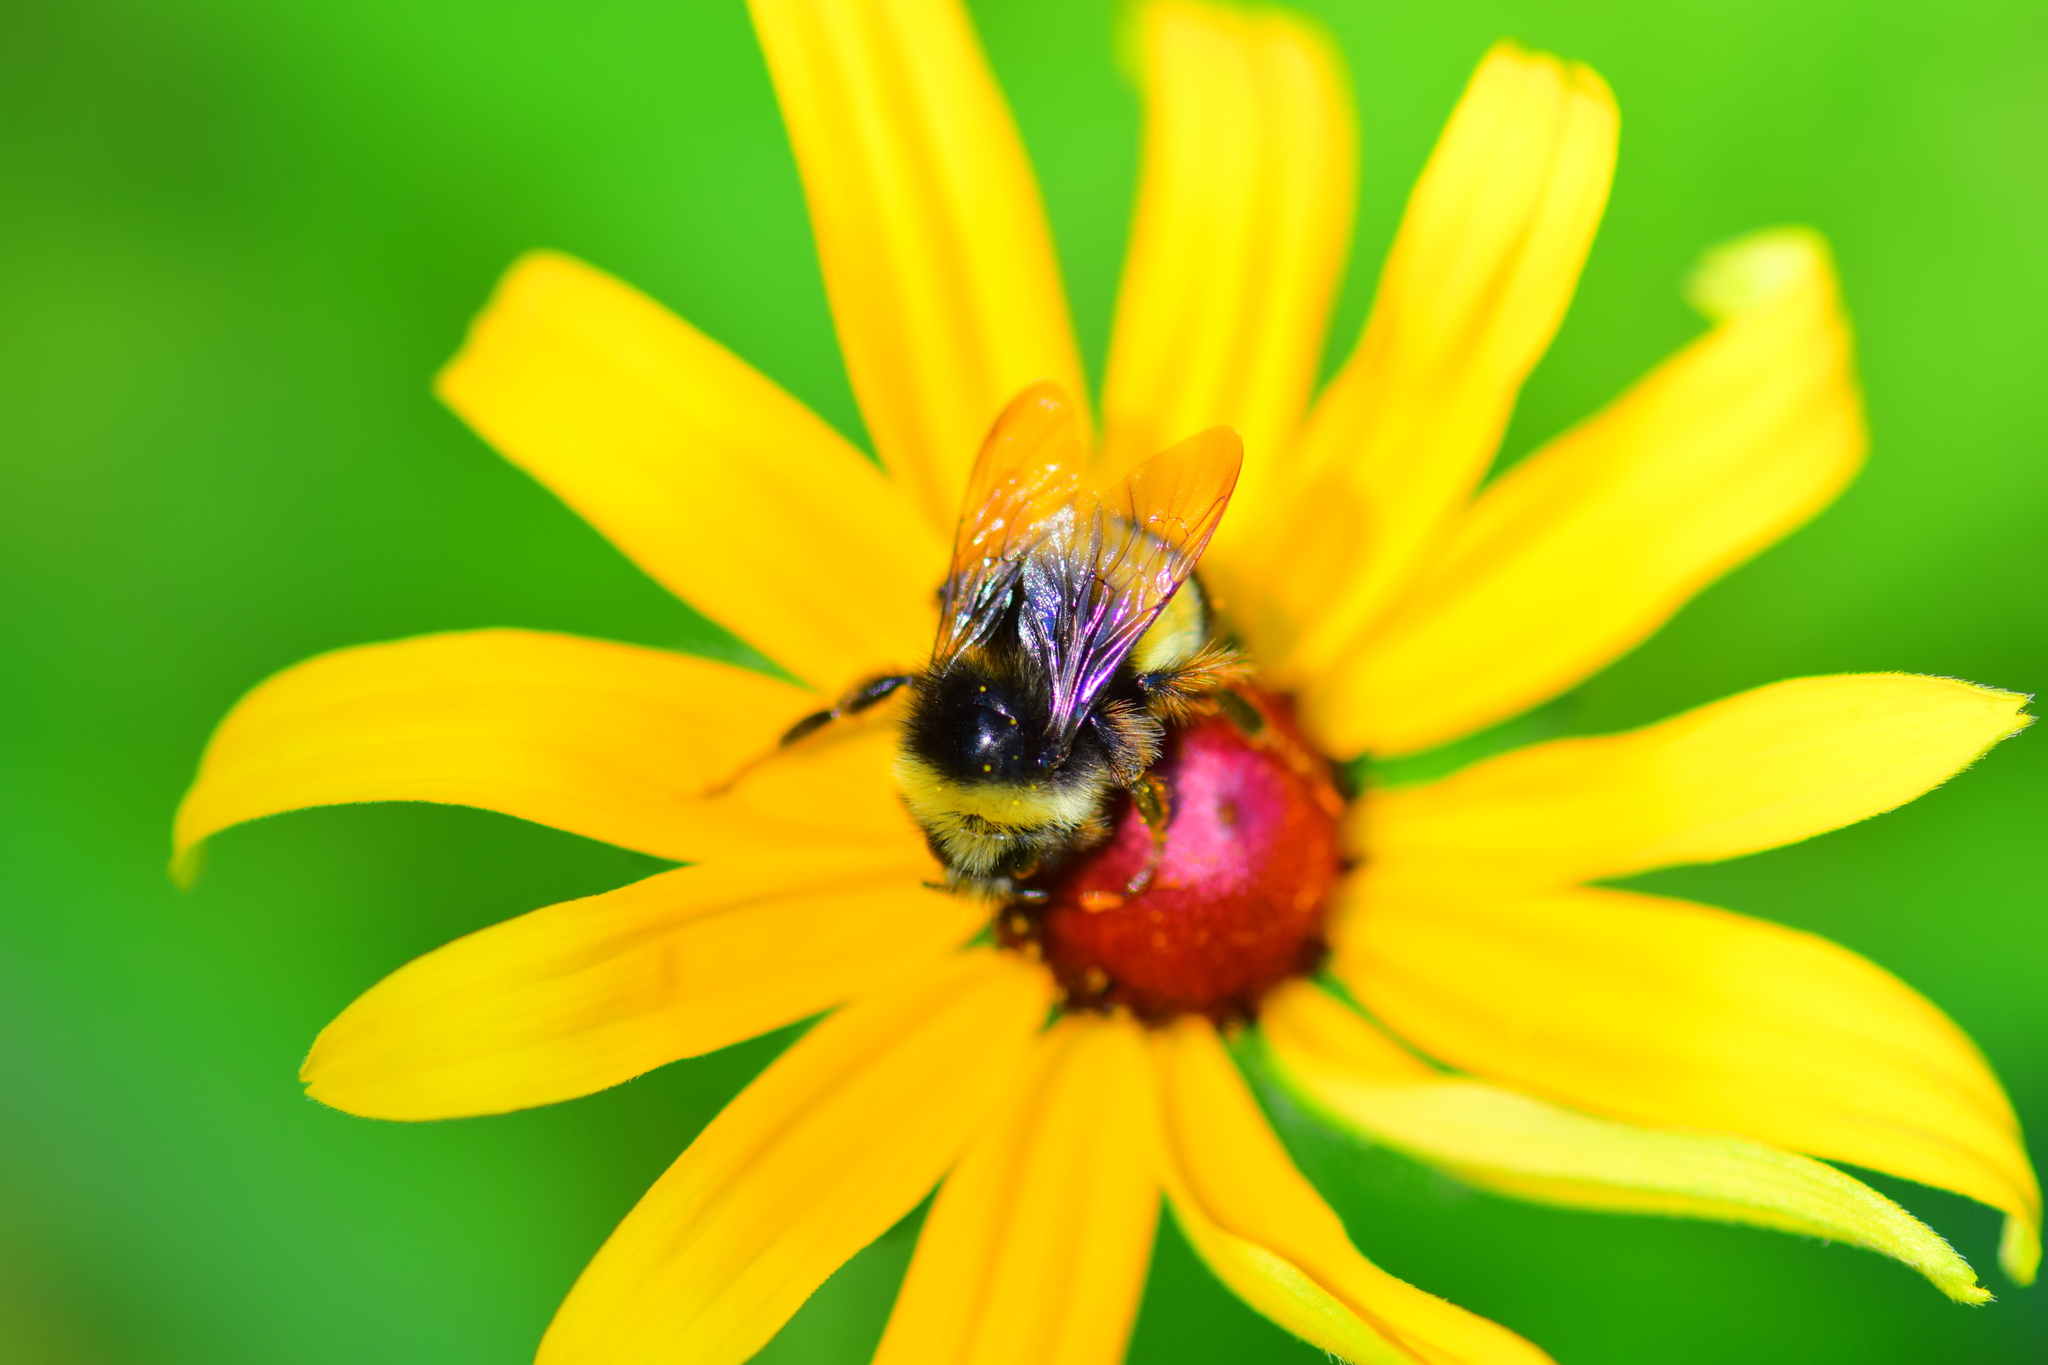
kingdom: Animalia
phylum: Arthropoda
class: Insecta
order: Hymenoptera
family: Apidae
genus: Bombus
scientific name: Bombus terricola
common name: Yellow-banded bumble bee
